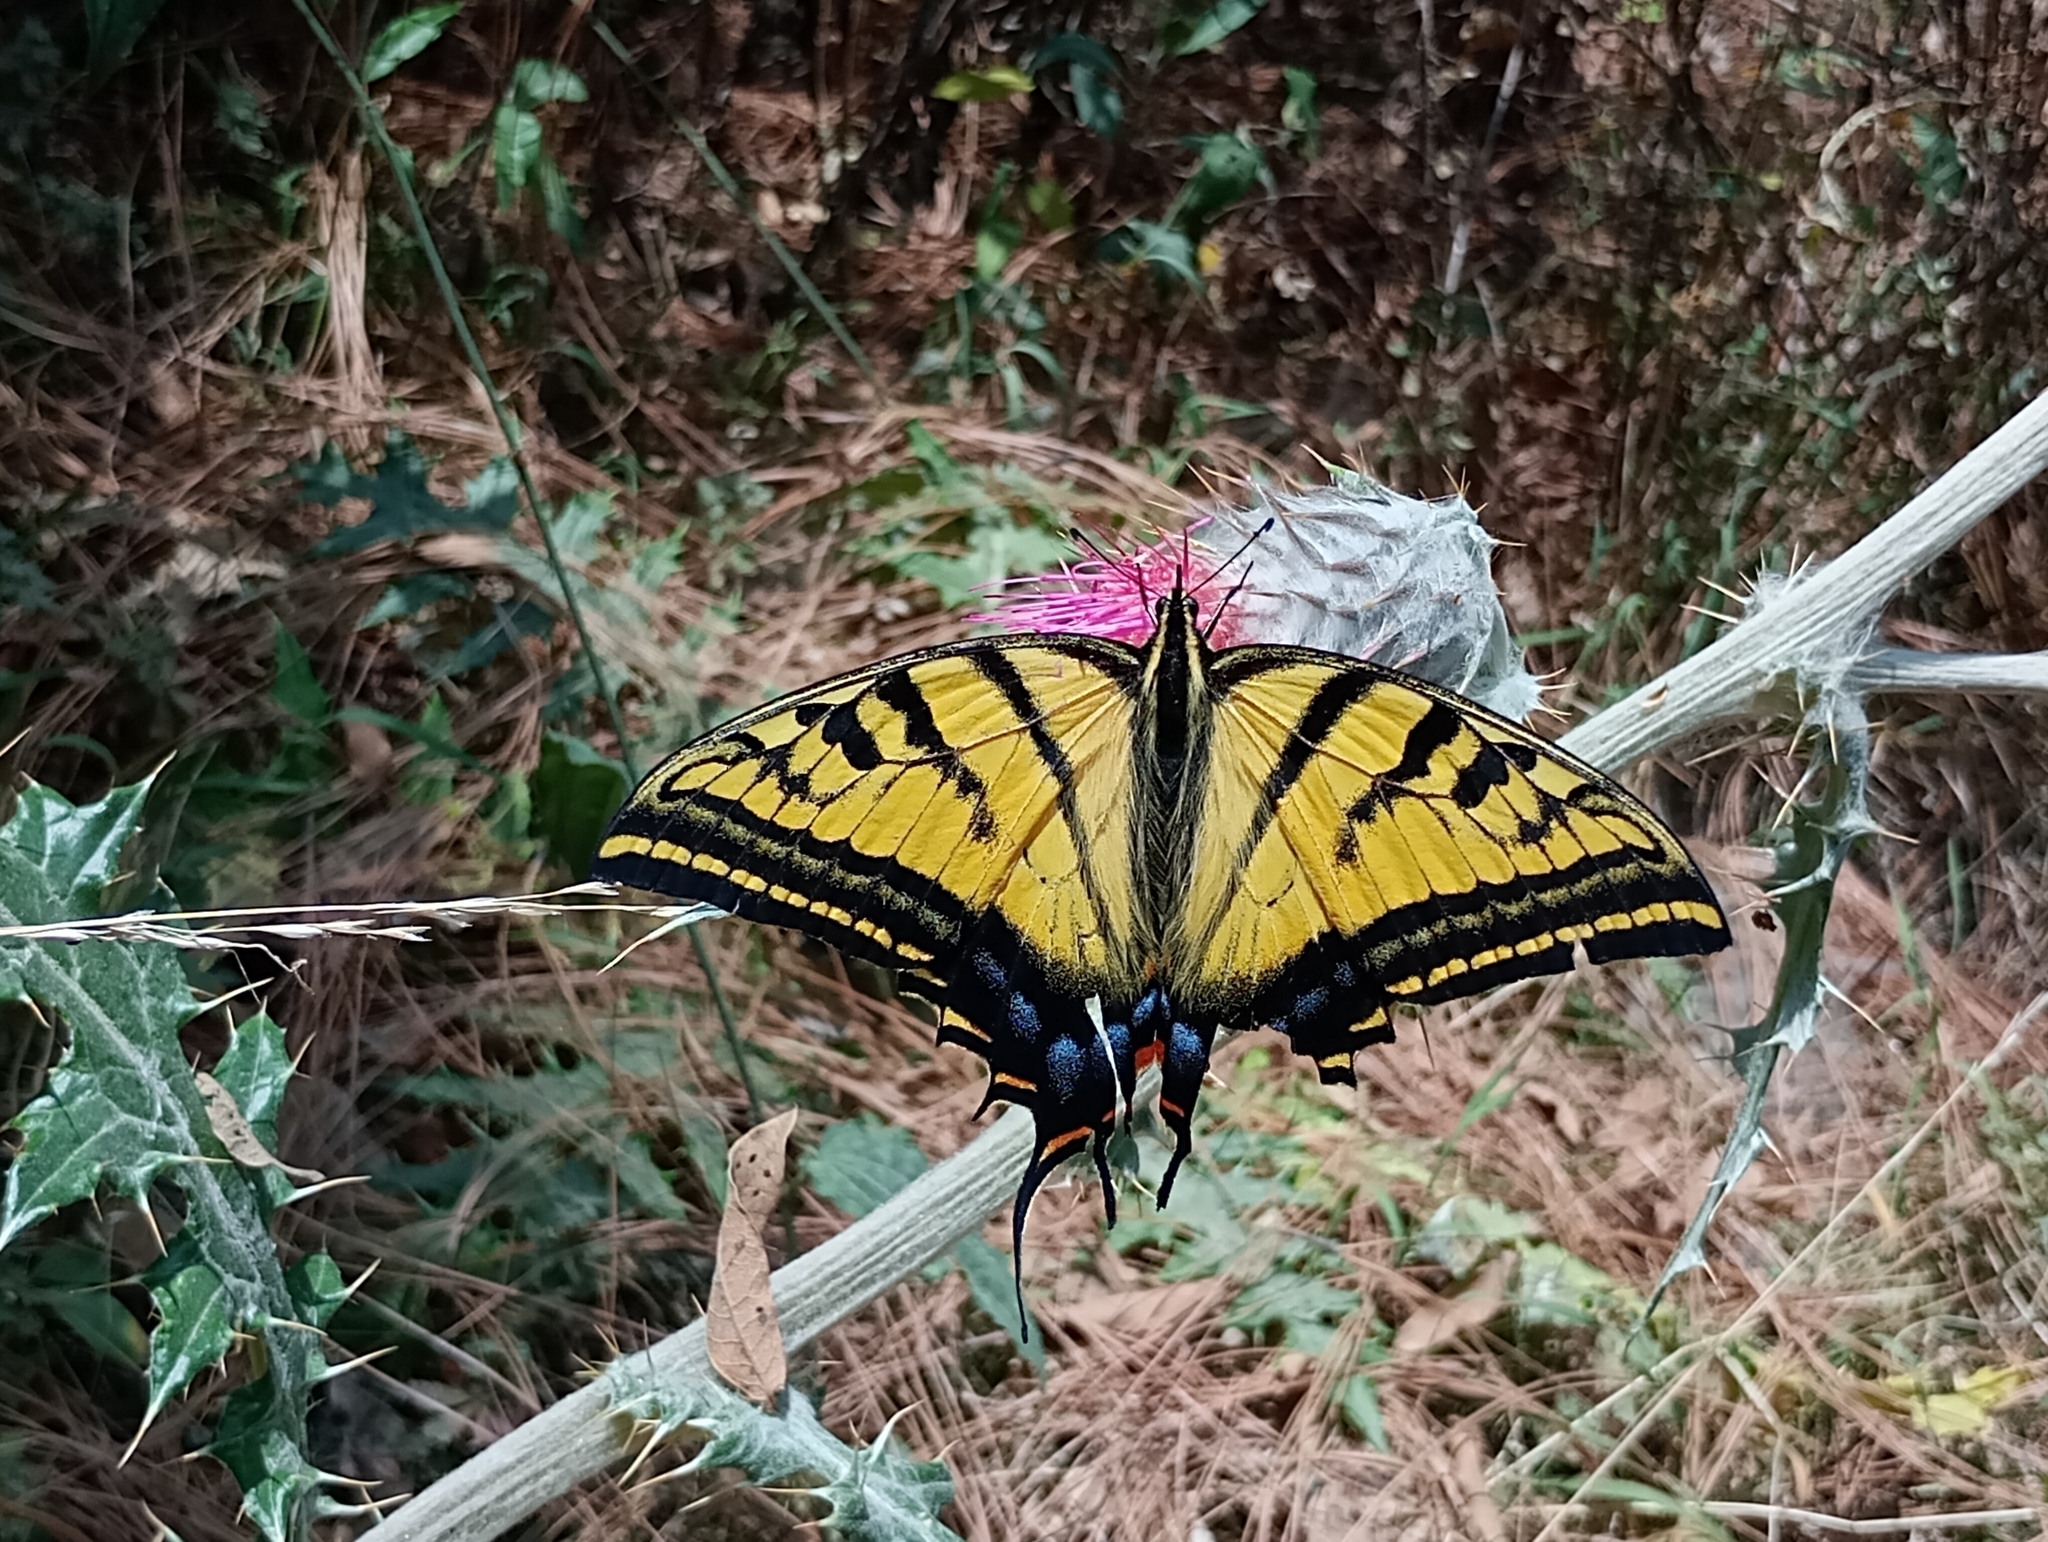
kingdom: Animalia
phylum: Arthropoda
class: Insecta
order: Lepidoptera
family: Papilionidae
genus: Papilio
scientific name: Papilio multicaudata
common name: Two-tailed tiger swallowtail
